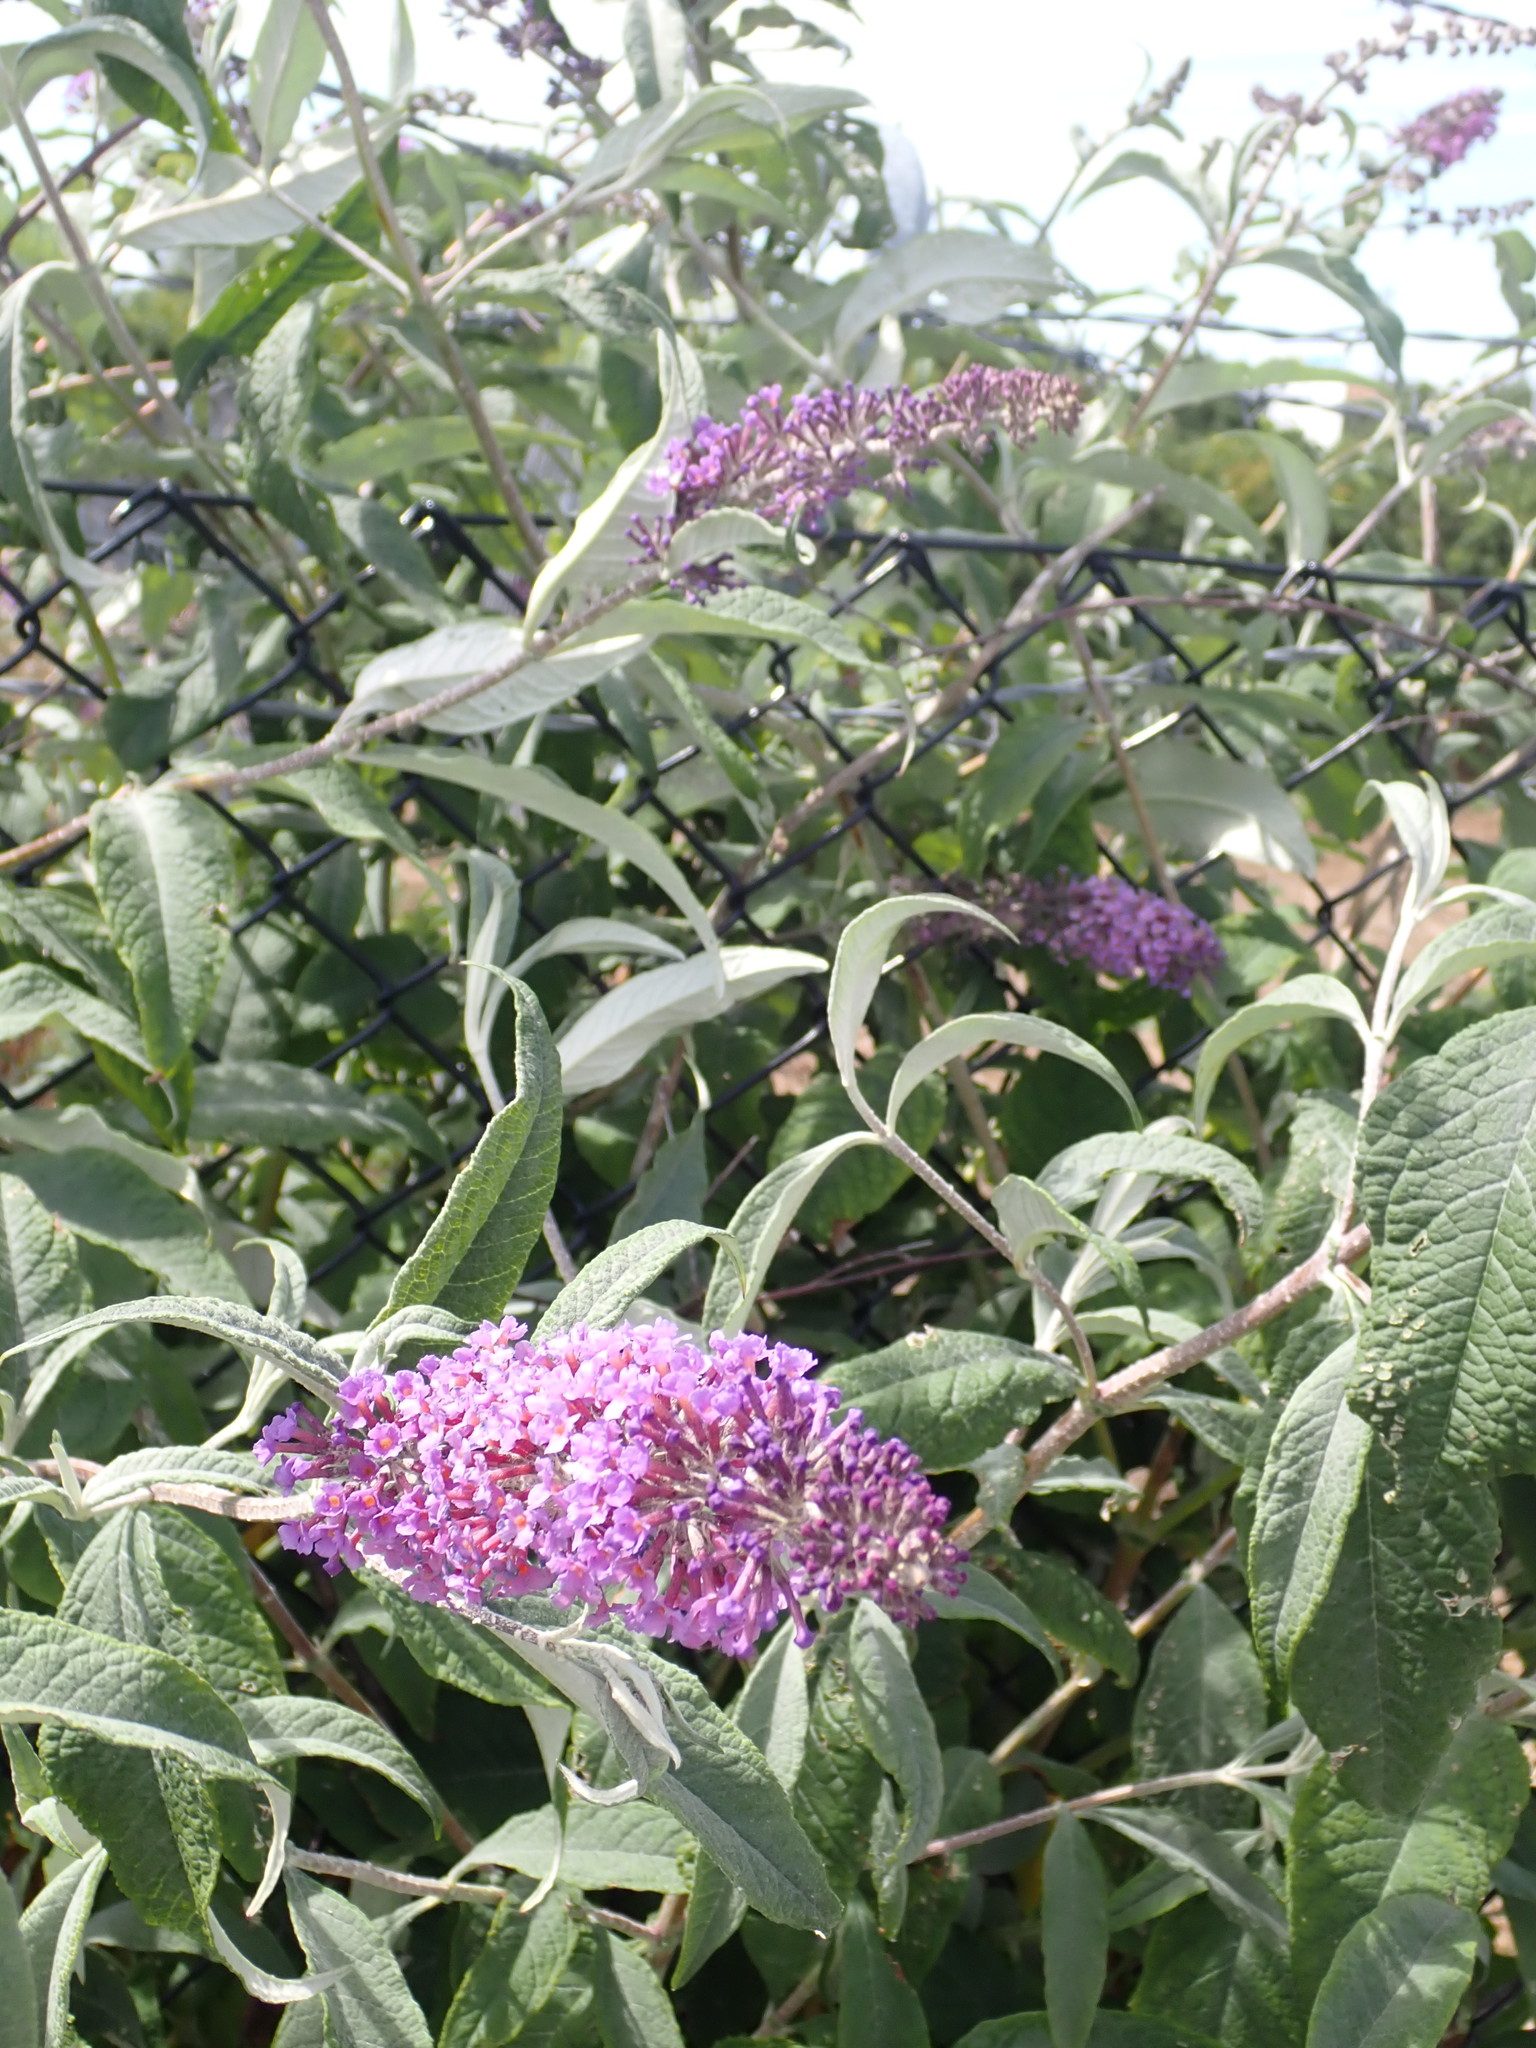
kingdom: Plantae
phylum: Tracheophyta
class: Magnoliopsida
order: Lamiales
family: Scrophulariaceae
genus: Buddleja
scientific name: Buddleja davidii
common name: Butterfly-bush
